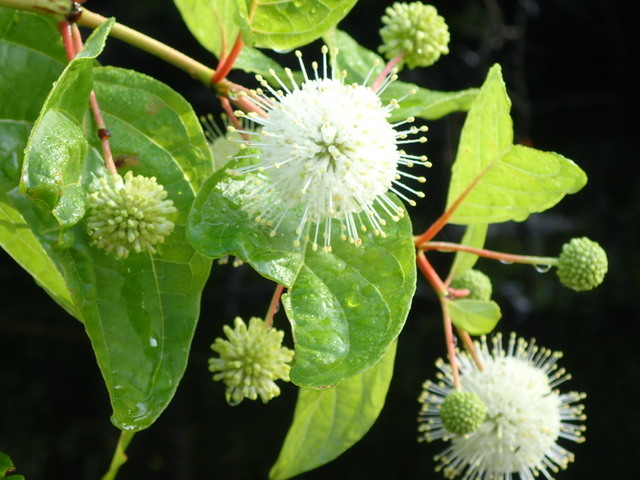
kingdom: Plantae
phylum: Tracheophyta
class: Magnoliopsida
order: Gentianales
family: Rubiaceae
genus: Cephalanthus
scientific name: Cephalanthus occidentalis
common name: Button-willow
